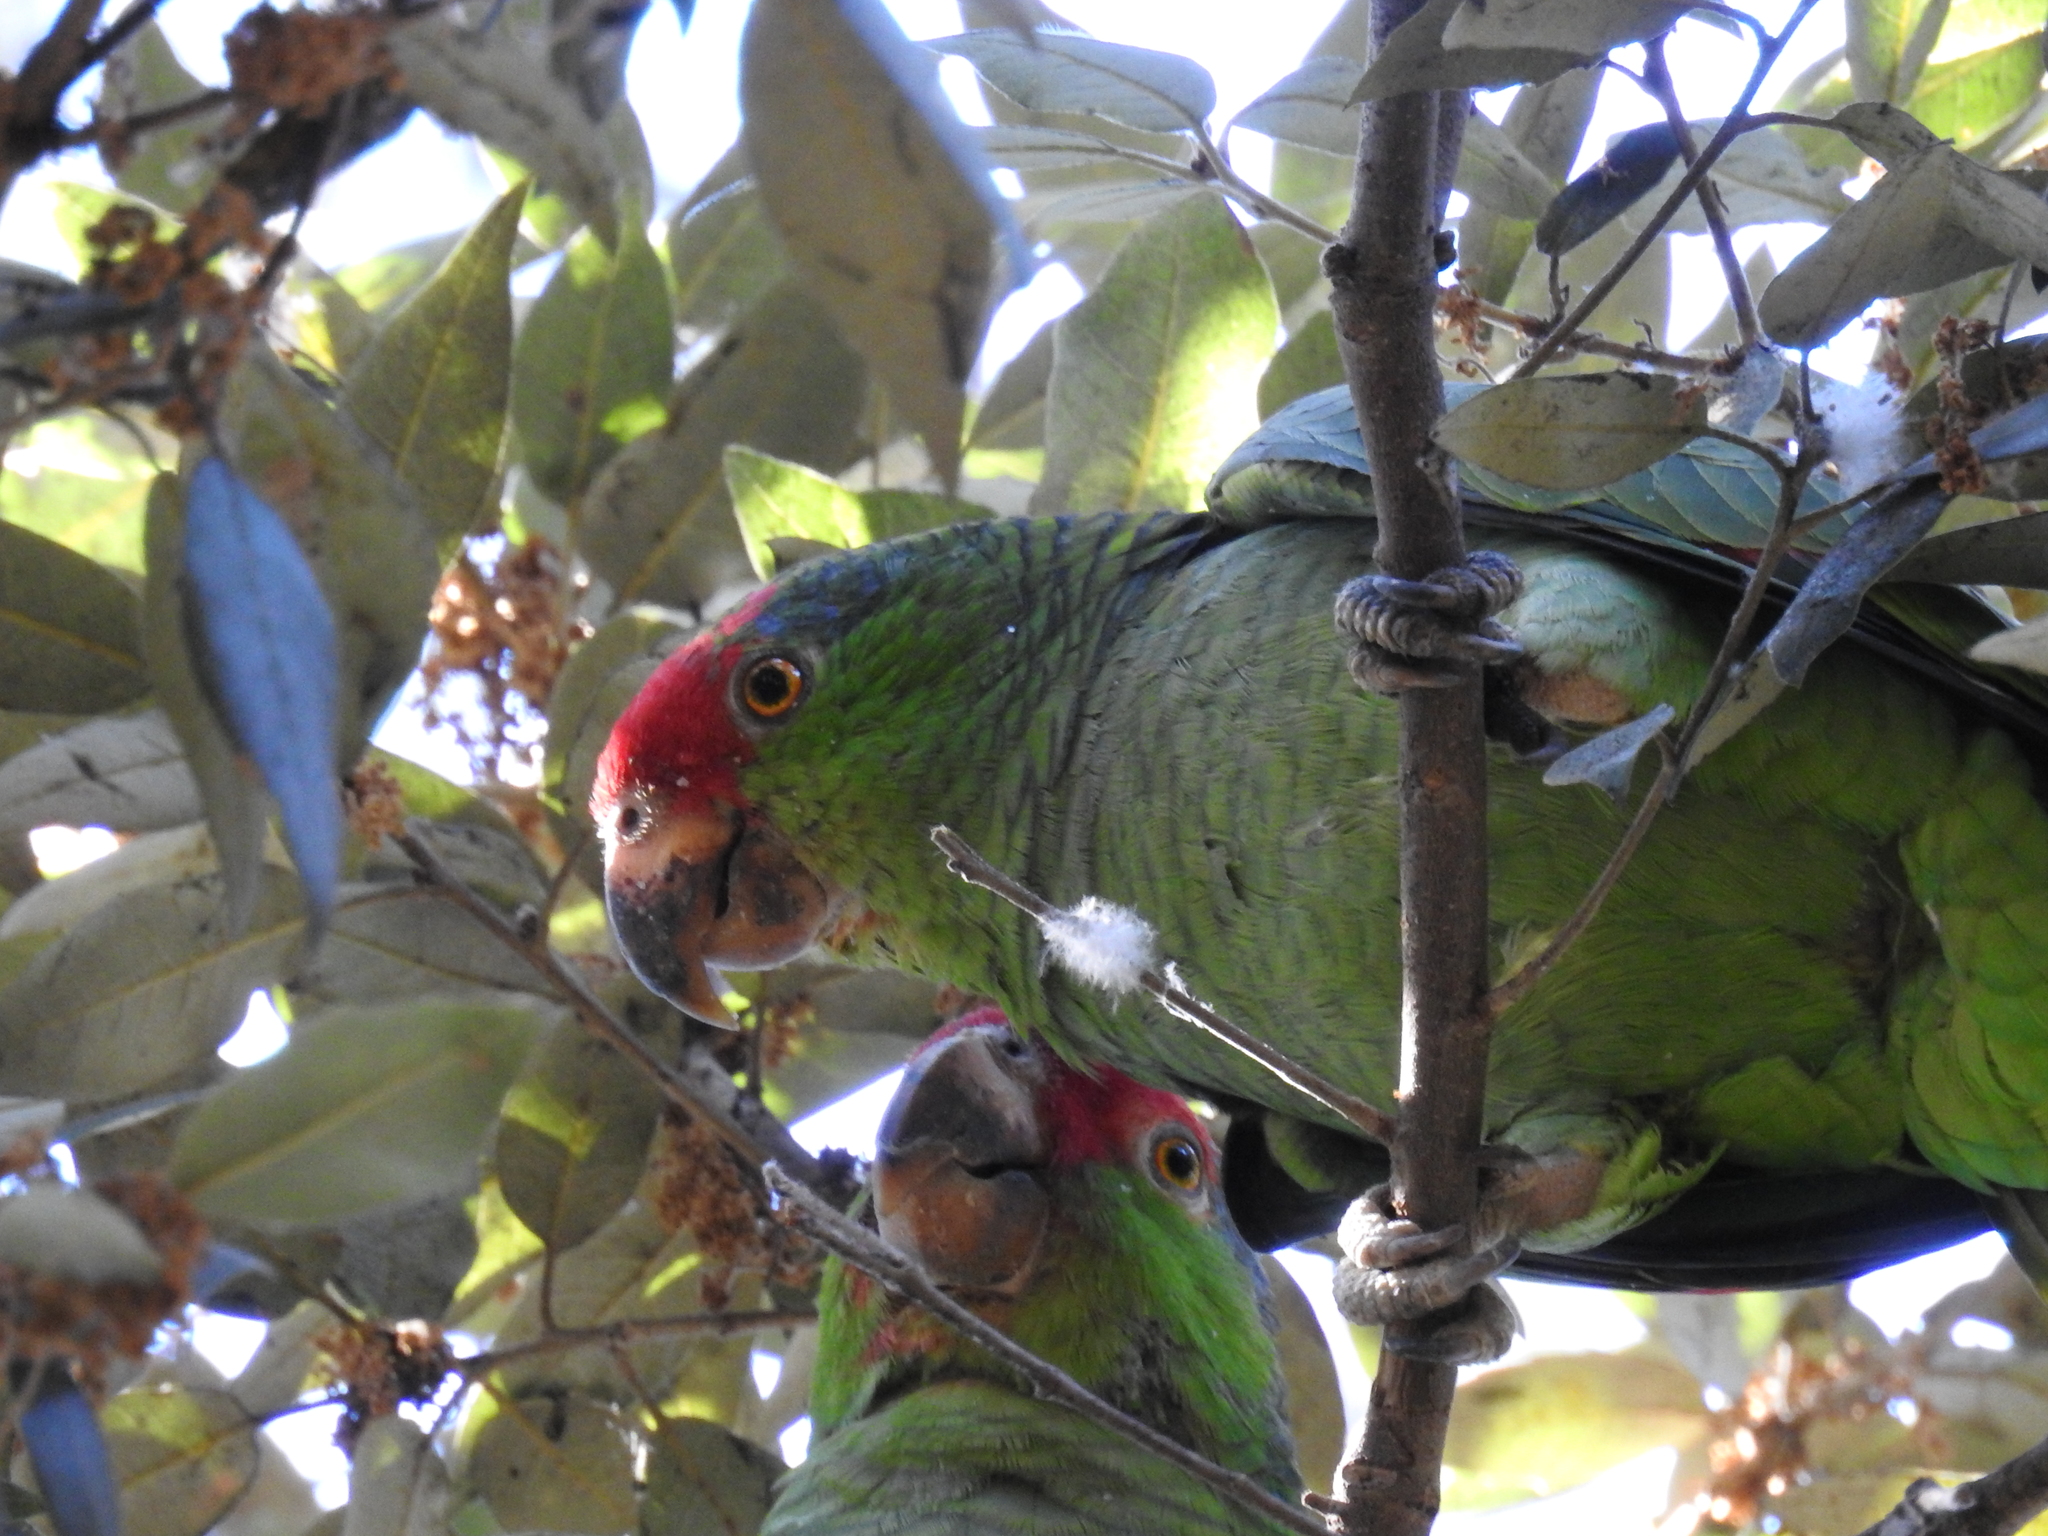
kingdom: Animalia
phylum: Chordata
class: Aves
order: Psittaciformes
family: Psittacidae
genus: Amazona
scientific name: Amazona viridigenalis
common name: Red-crowned amazon
